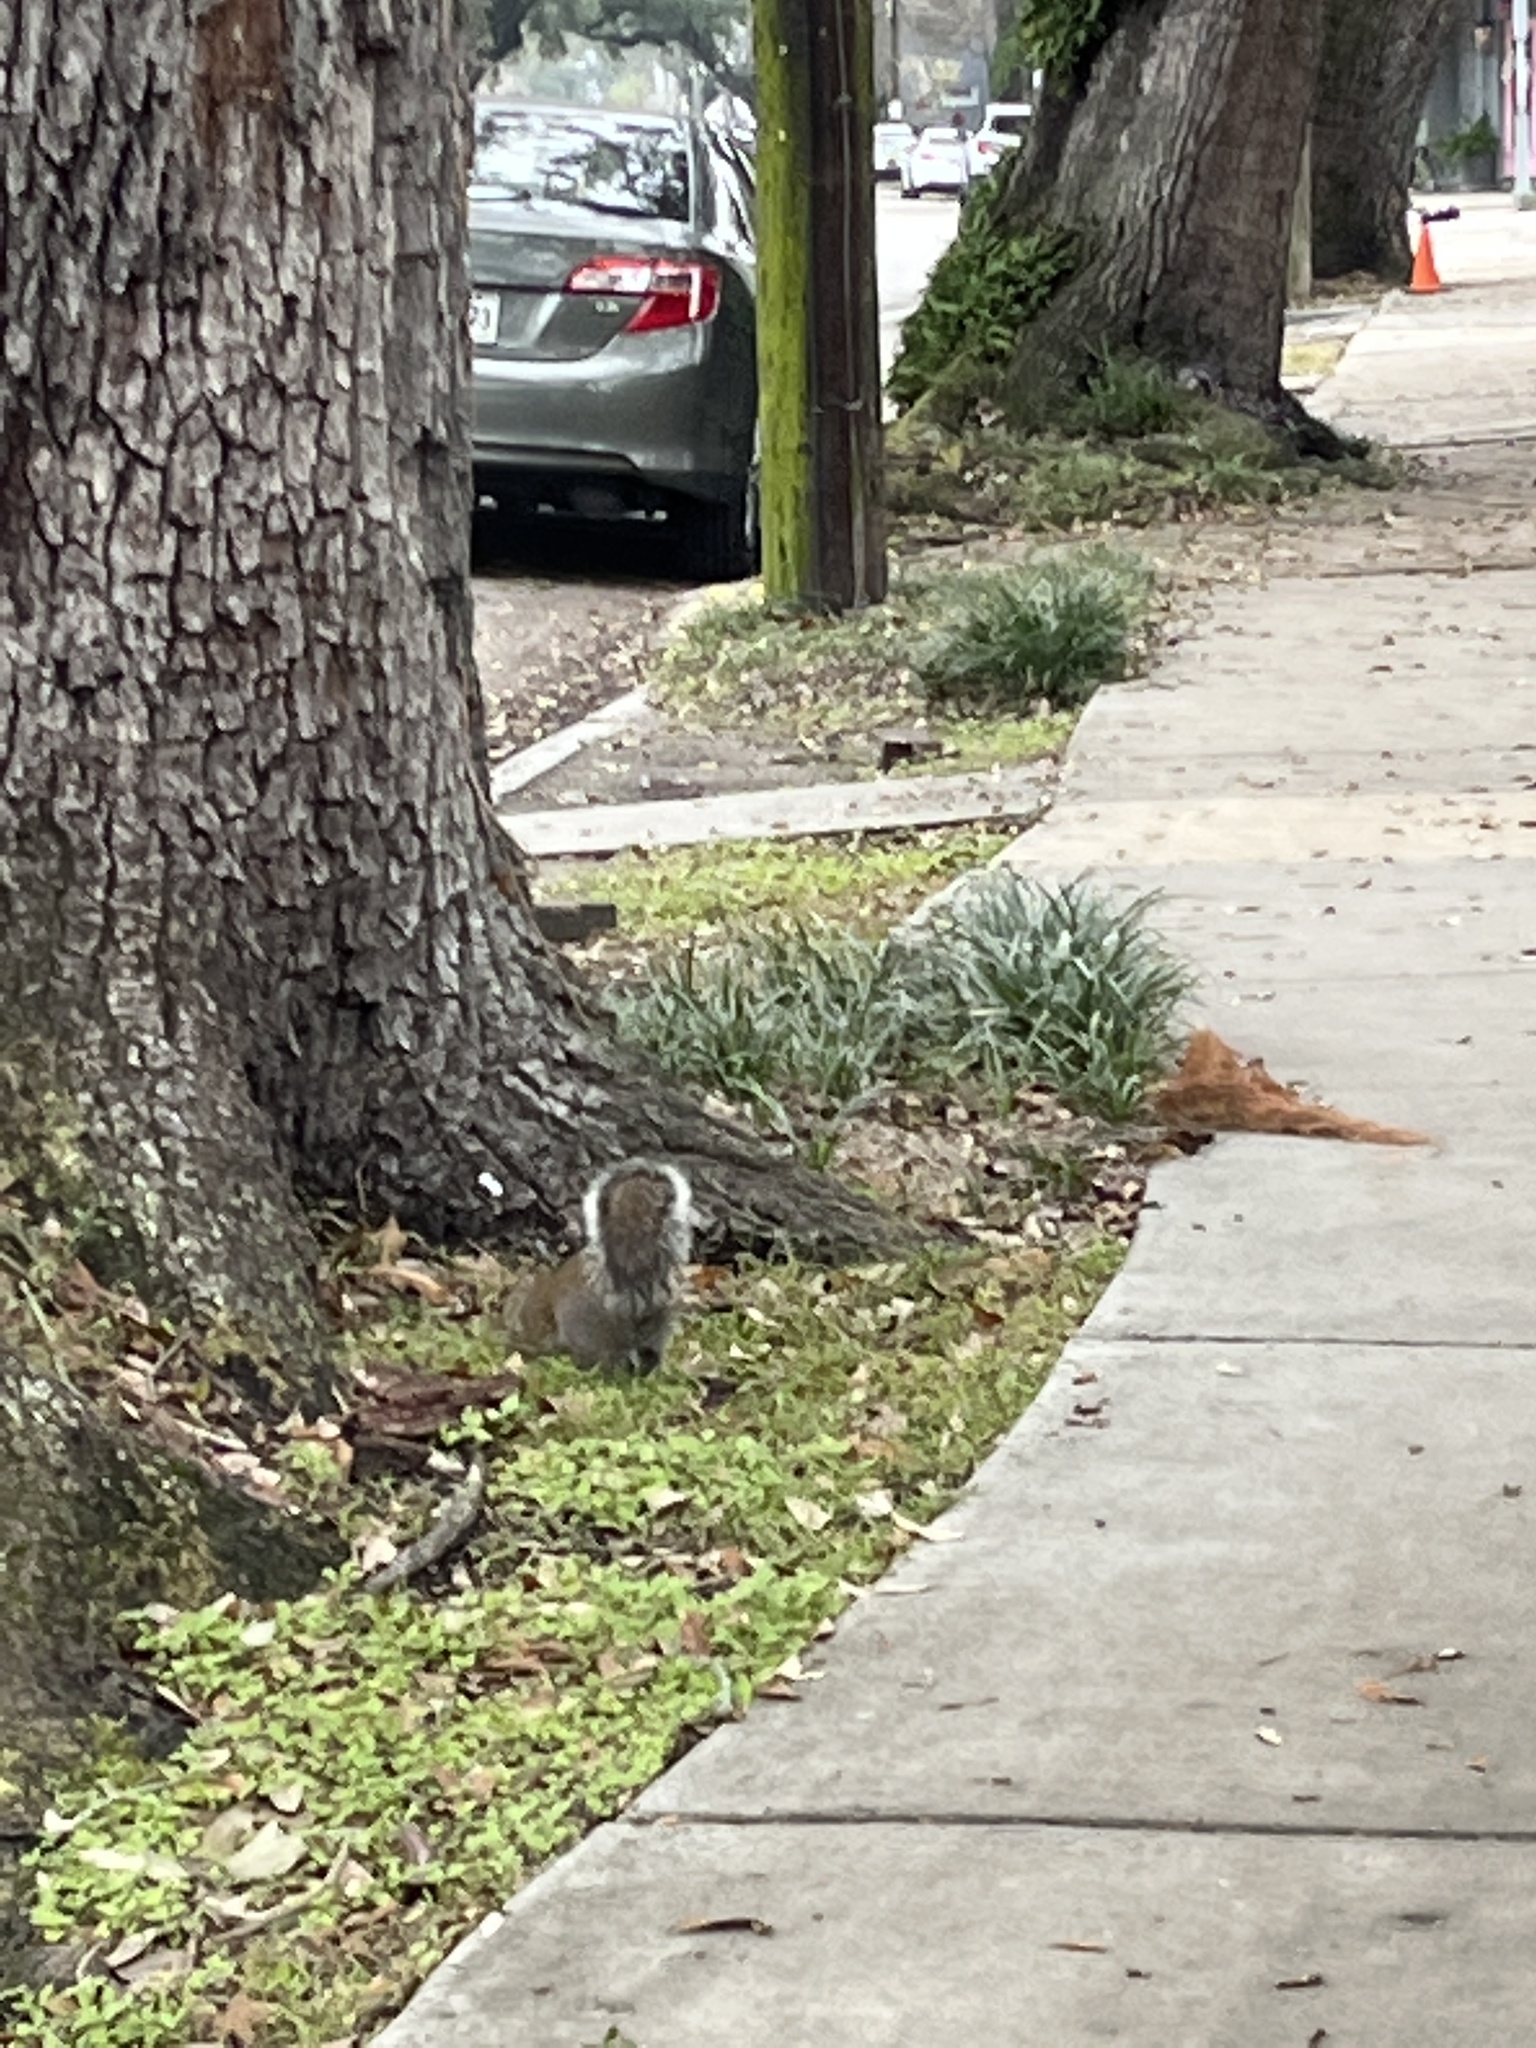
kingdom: Animalia
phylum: Chordata
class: Mammalia
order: Rodentia
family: Sciuridae
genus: Sciurus
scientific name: Sciurus carolinensis
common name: Eastern gray squirrel
